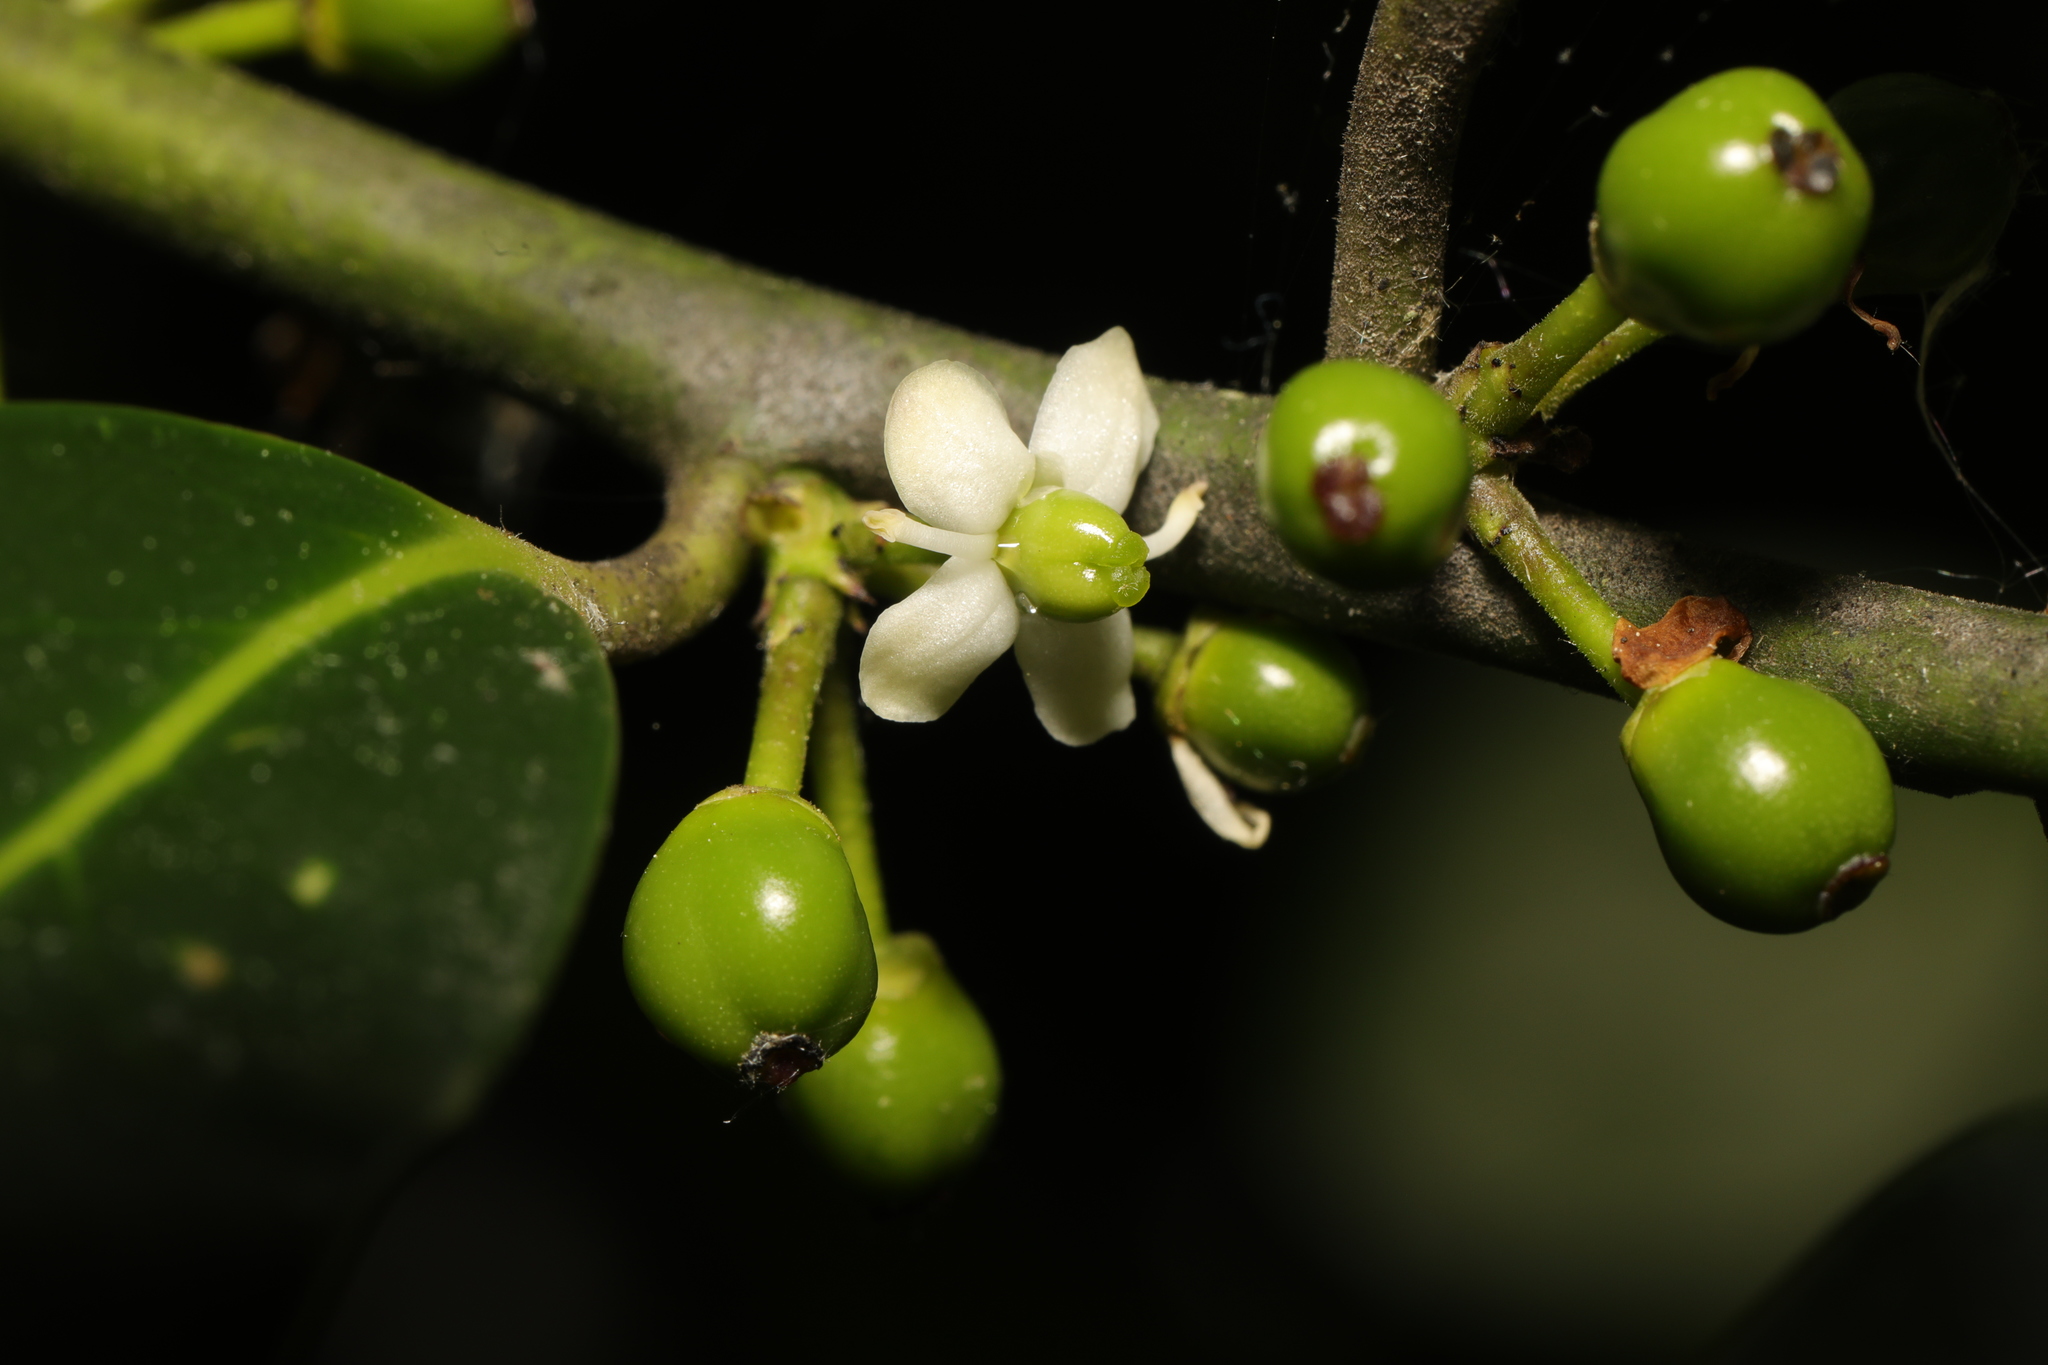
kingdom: Plantae
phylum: Tracheophyta
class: Magnoliopsida
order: Aquifoliales
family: Aquifoliaceae
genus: Ilex
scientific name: Ilex altaclerensis
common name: Highclere holly
